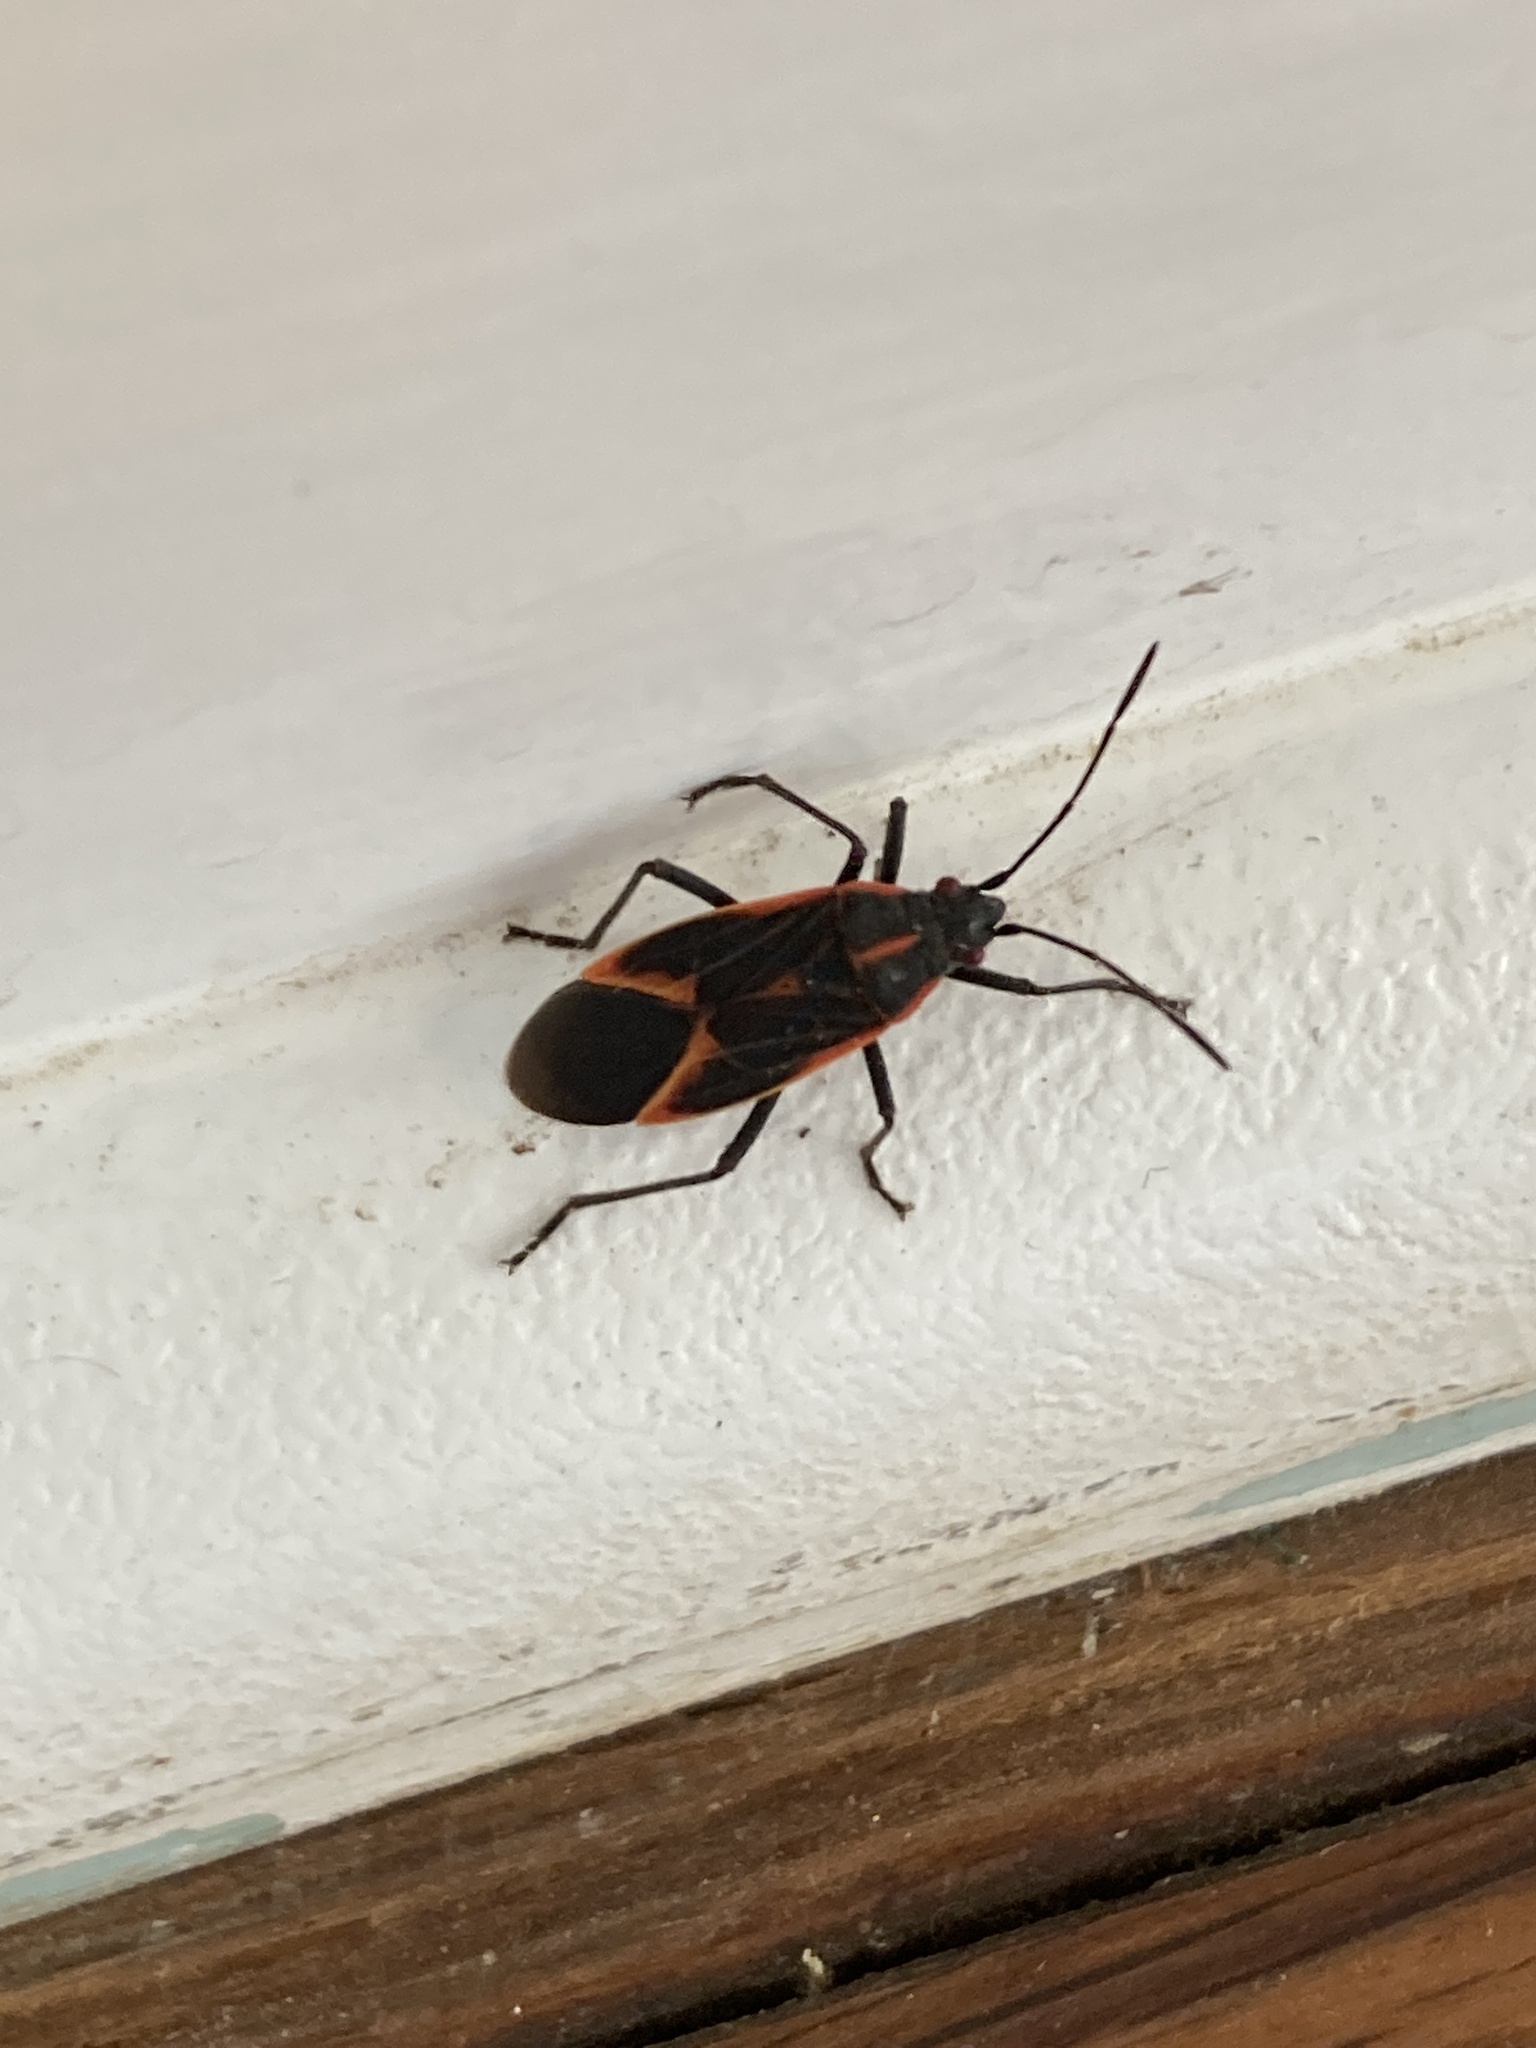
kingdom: Animalia
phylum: Arthropoda
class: Insecta
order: Hemiptera
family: Rhopalidae
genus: Boisea
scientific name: Boisea trivittata
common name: Boxelder bug
